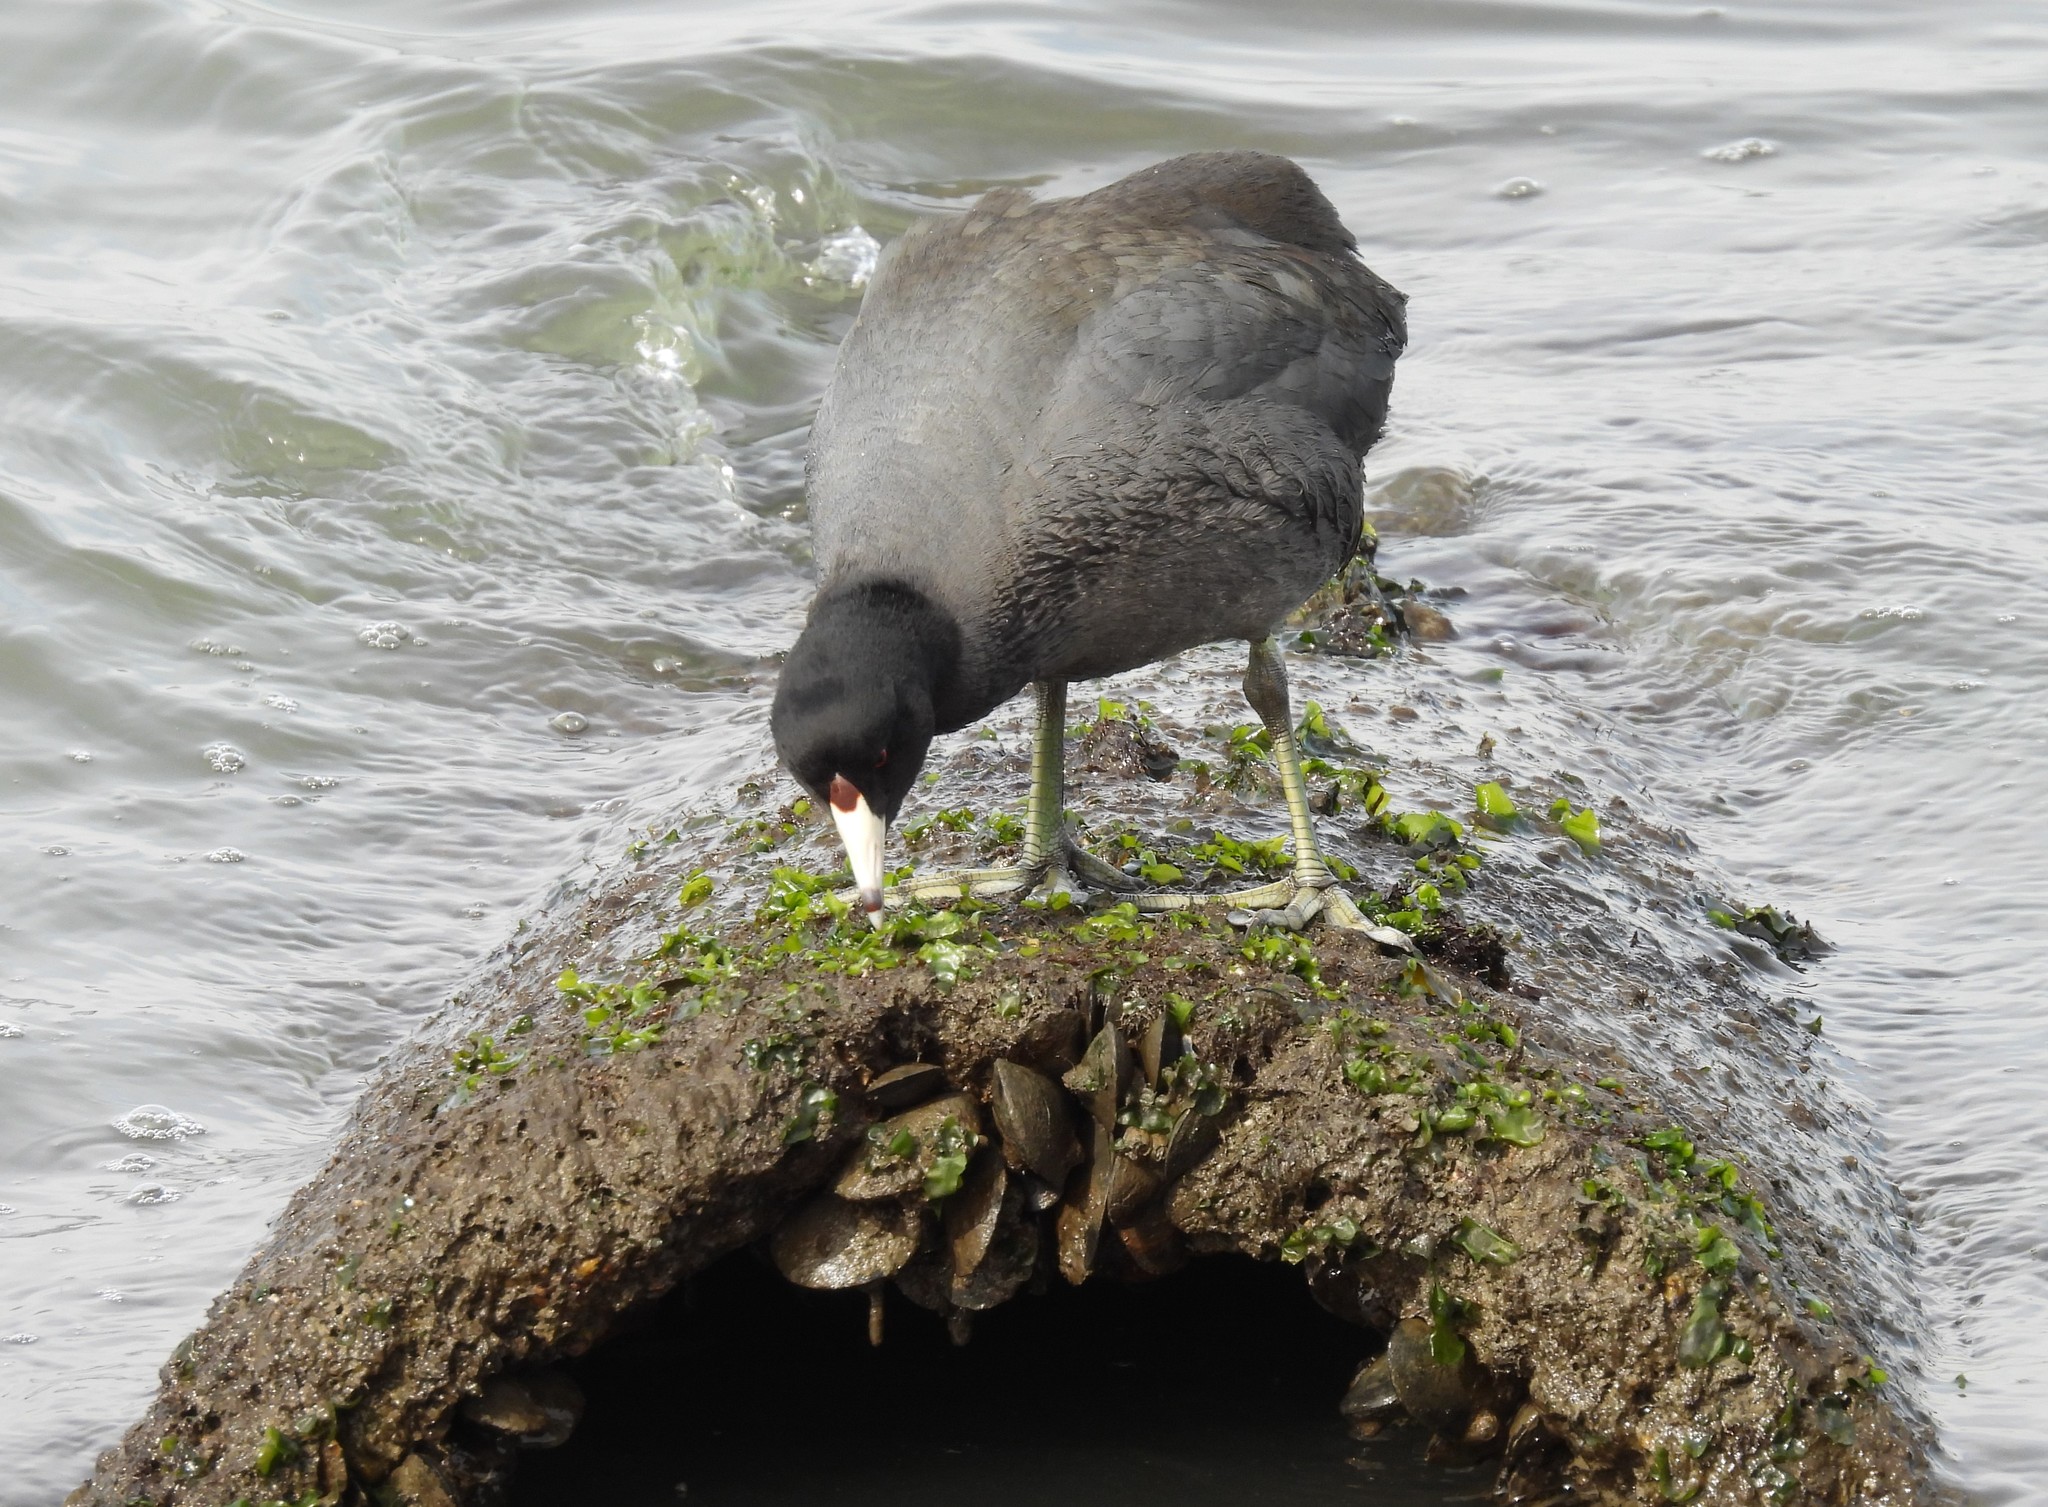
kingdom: Animalia
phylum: Chordata
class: Aves
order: Gruiformes
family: Rallidae
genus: Fulica
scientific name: Fulica americana
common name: American coot
